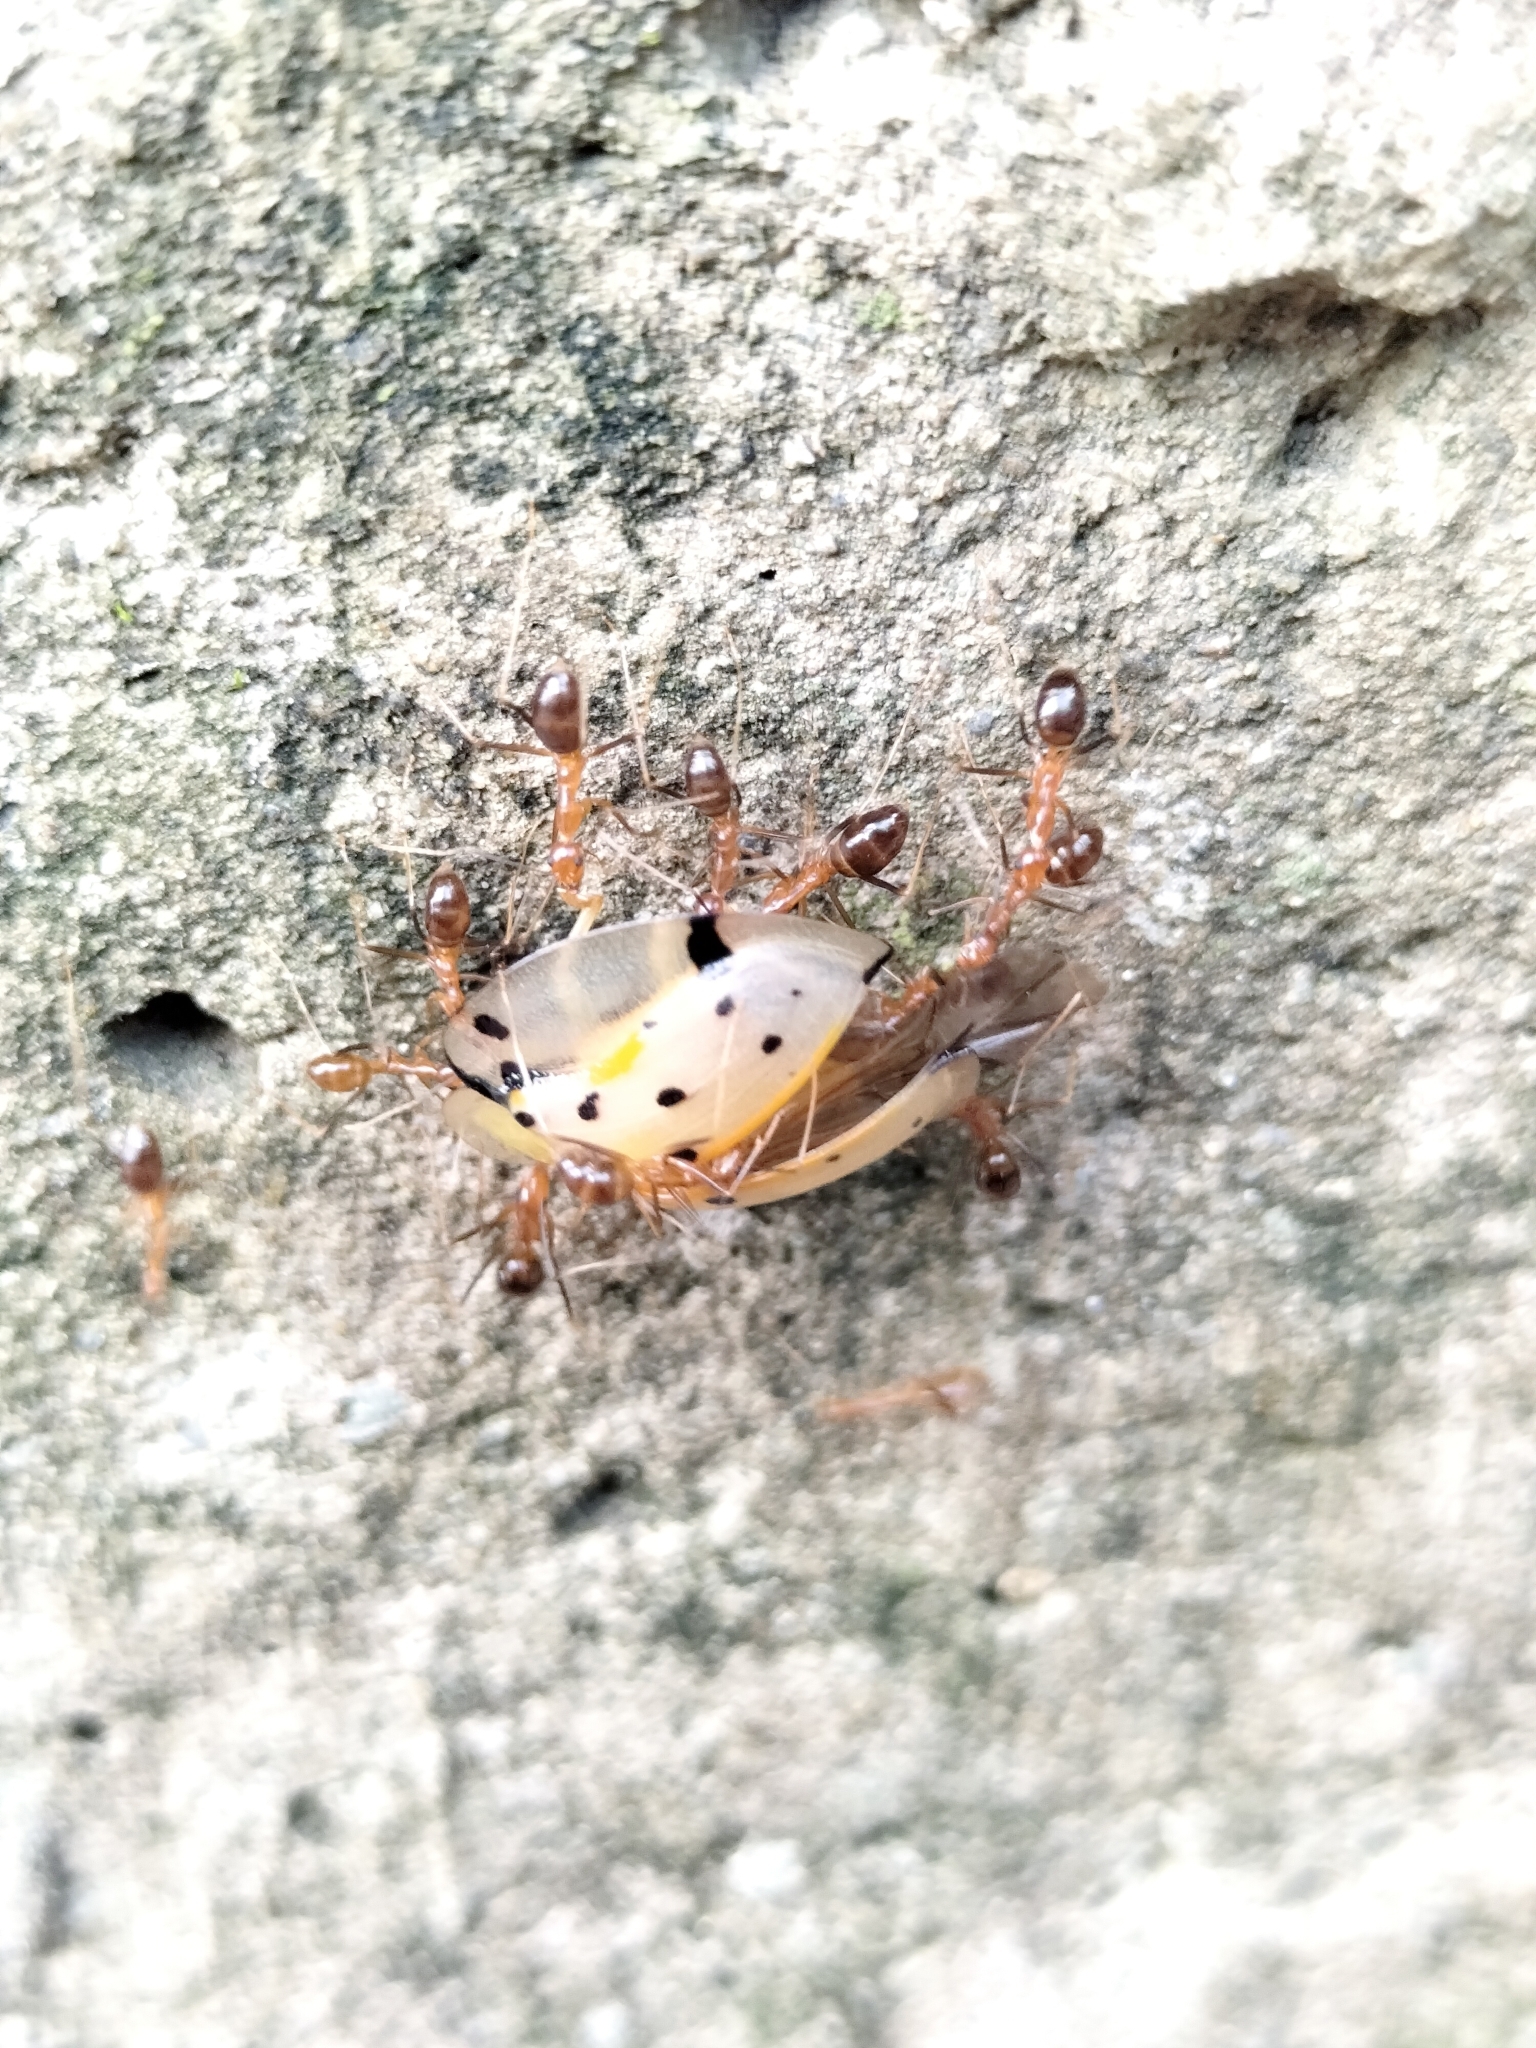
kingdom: Animalia
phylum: Arthropoda
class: Insecta
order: Hymenoptera
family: Formicidae
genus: Anoplolepis
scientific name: Anoplolepis gracilipes
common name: Ant
